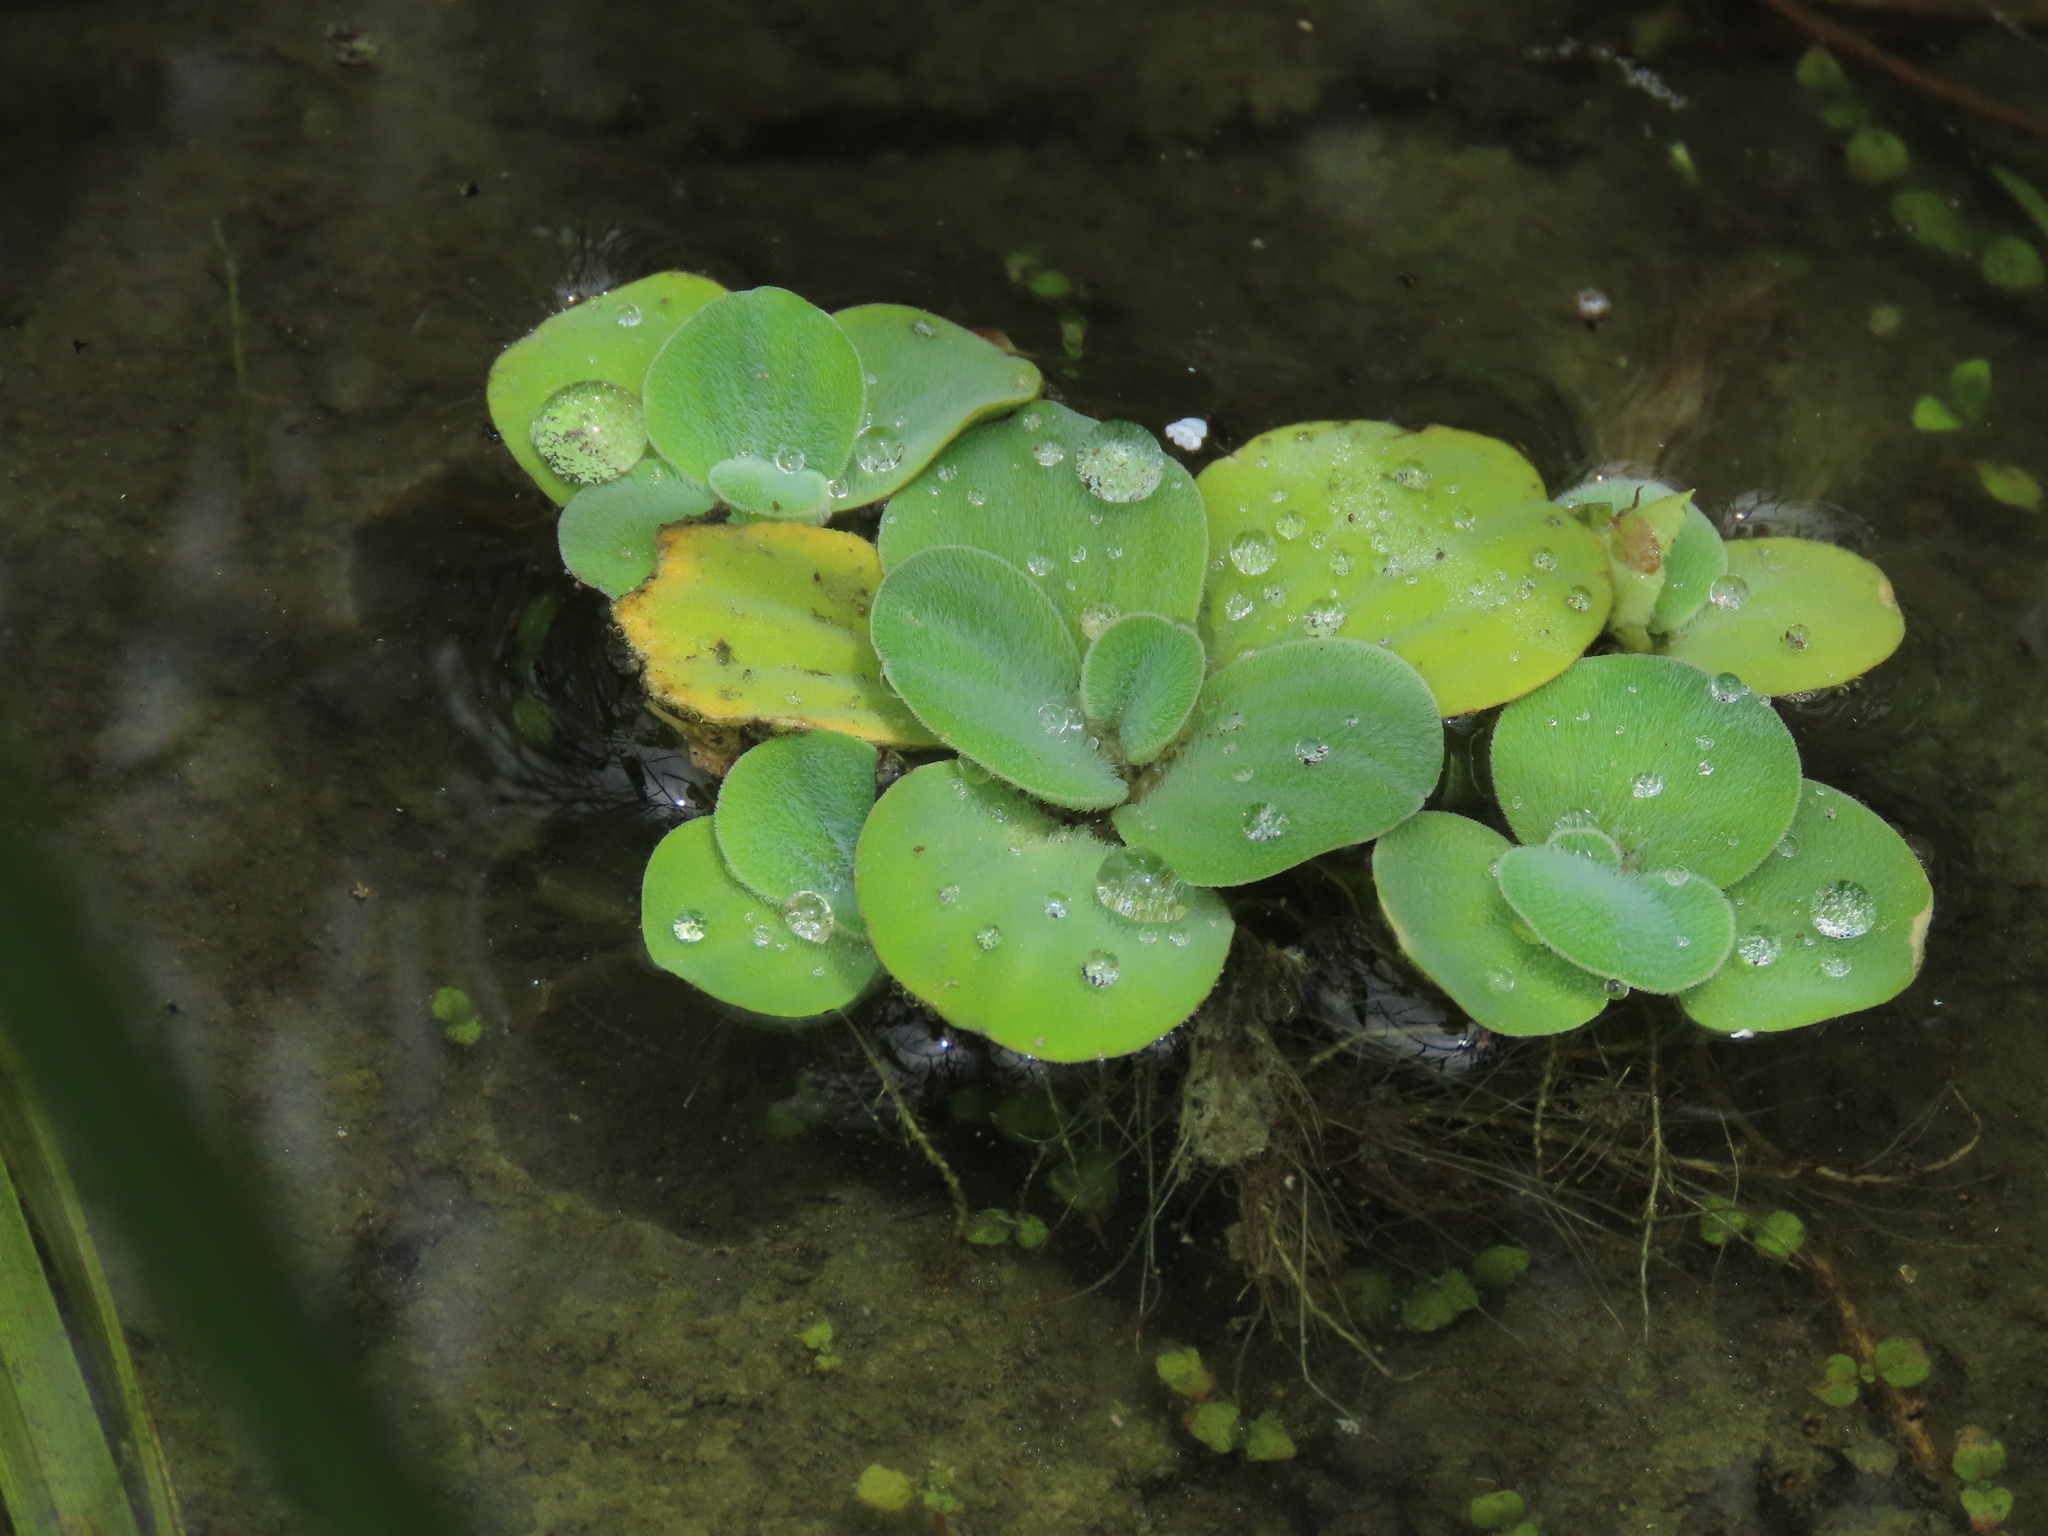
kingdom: Plantae
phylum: Tracheophyta
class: Liliopsida
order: Alismatales
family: Araceae
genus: Pistia
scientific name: Pistia stratiotes
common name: Water lettuce
